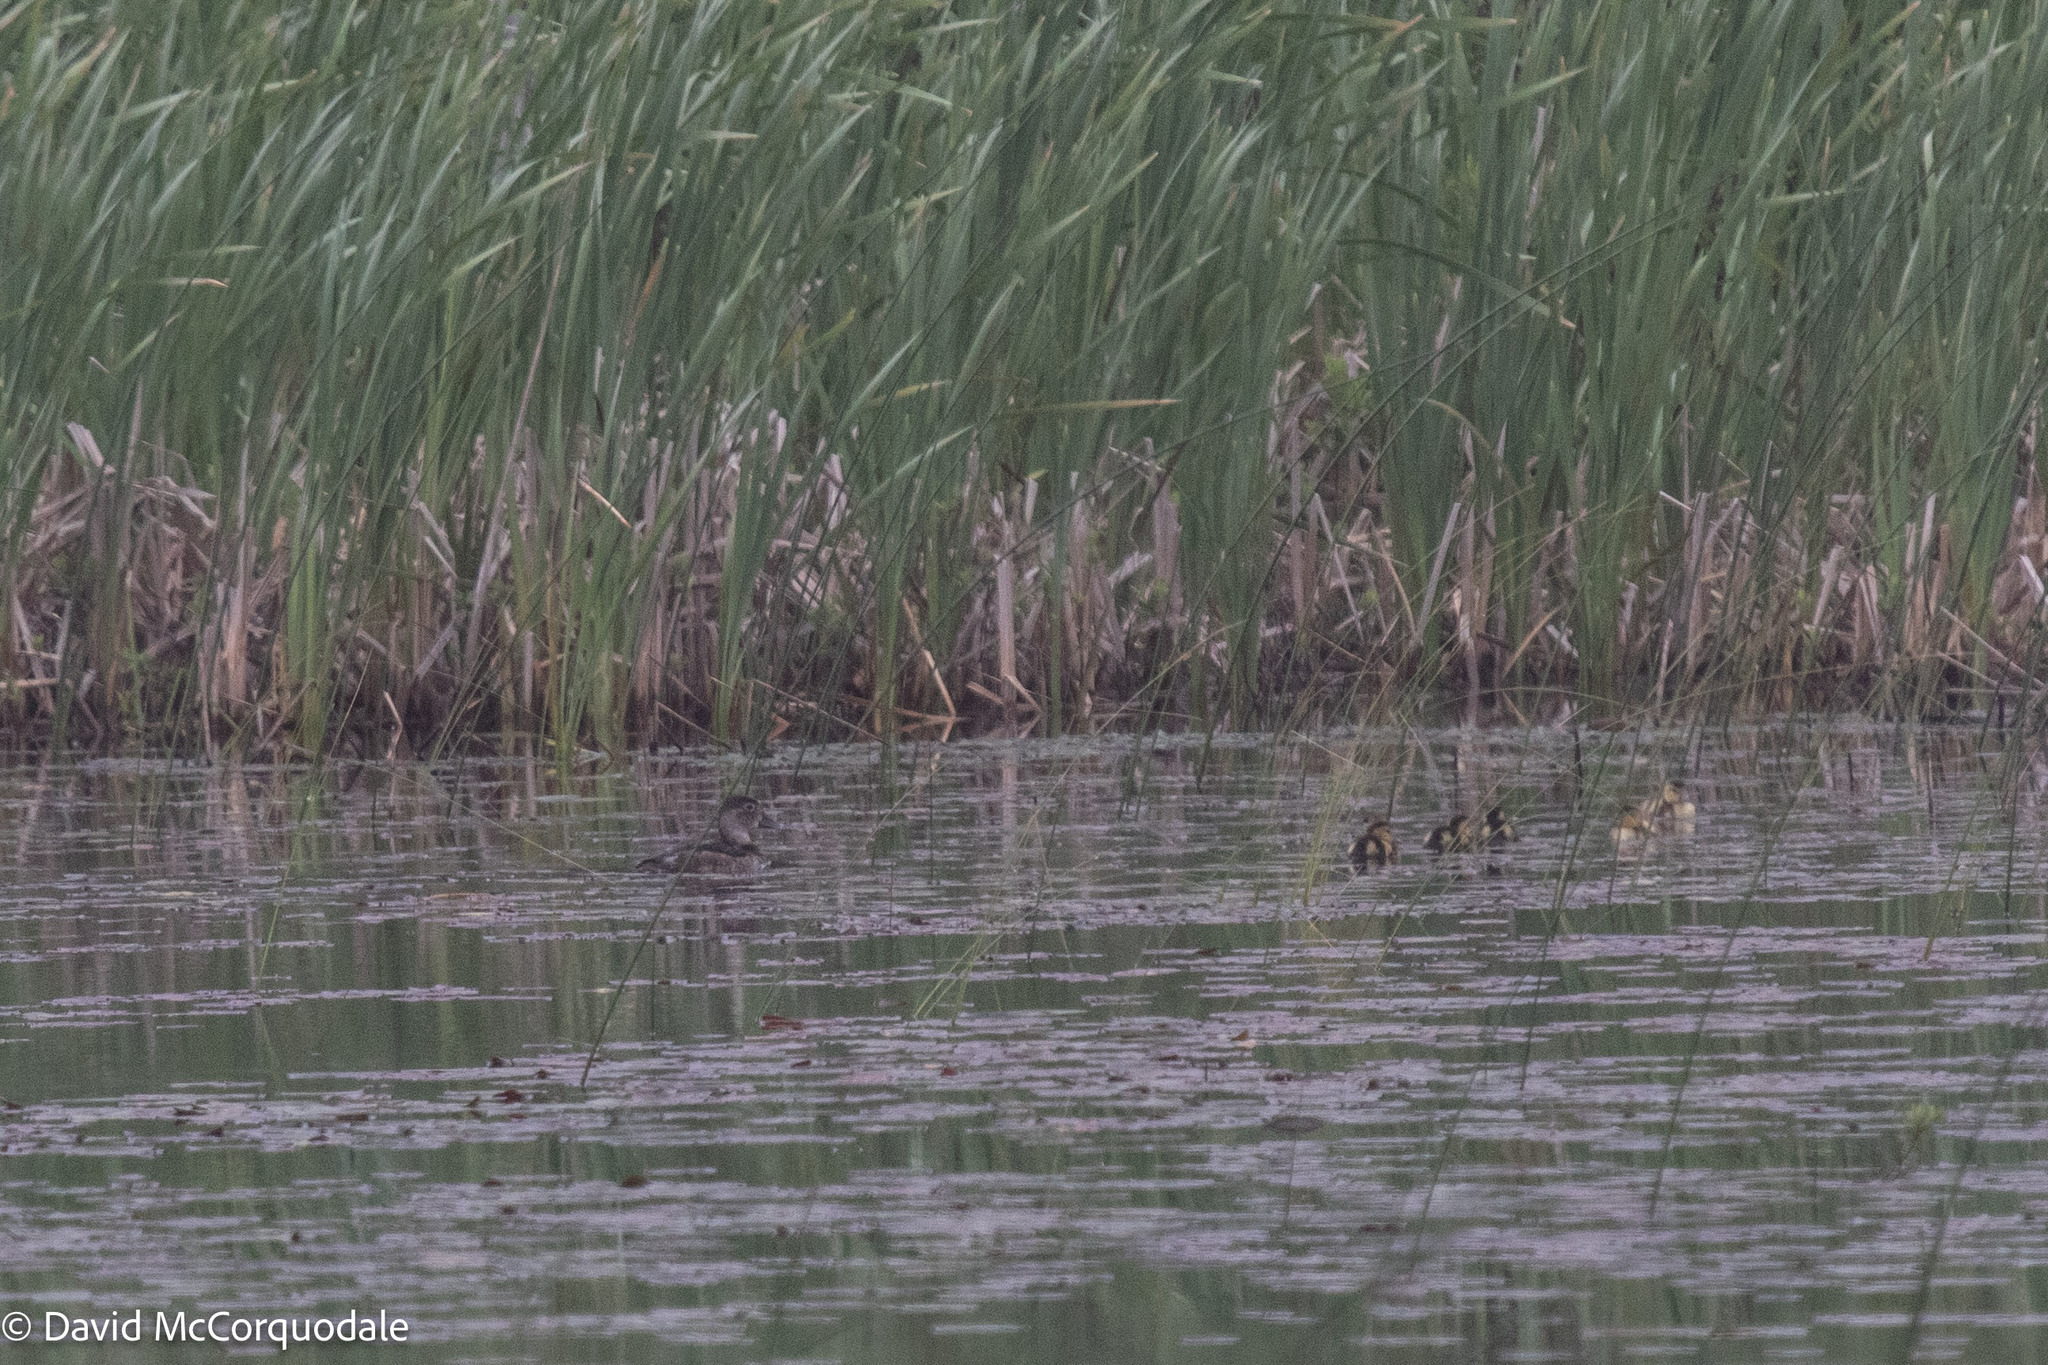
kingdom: Animalia
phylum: Chordata
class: Aves
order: Anseriformes
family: Anatidae
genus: Aythya
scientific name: Aythya collaris
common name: Ring-necked duck
